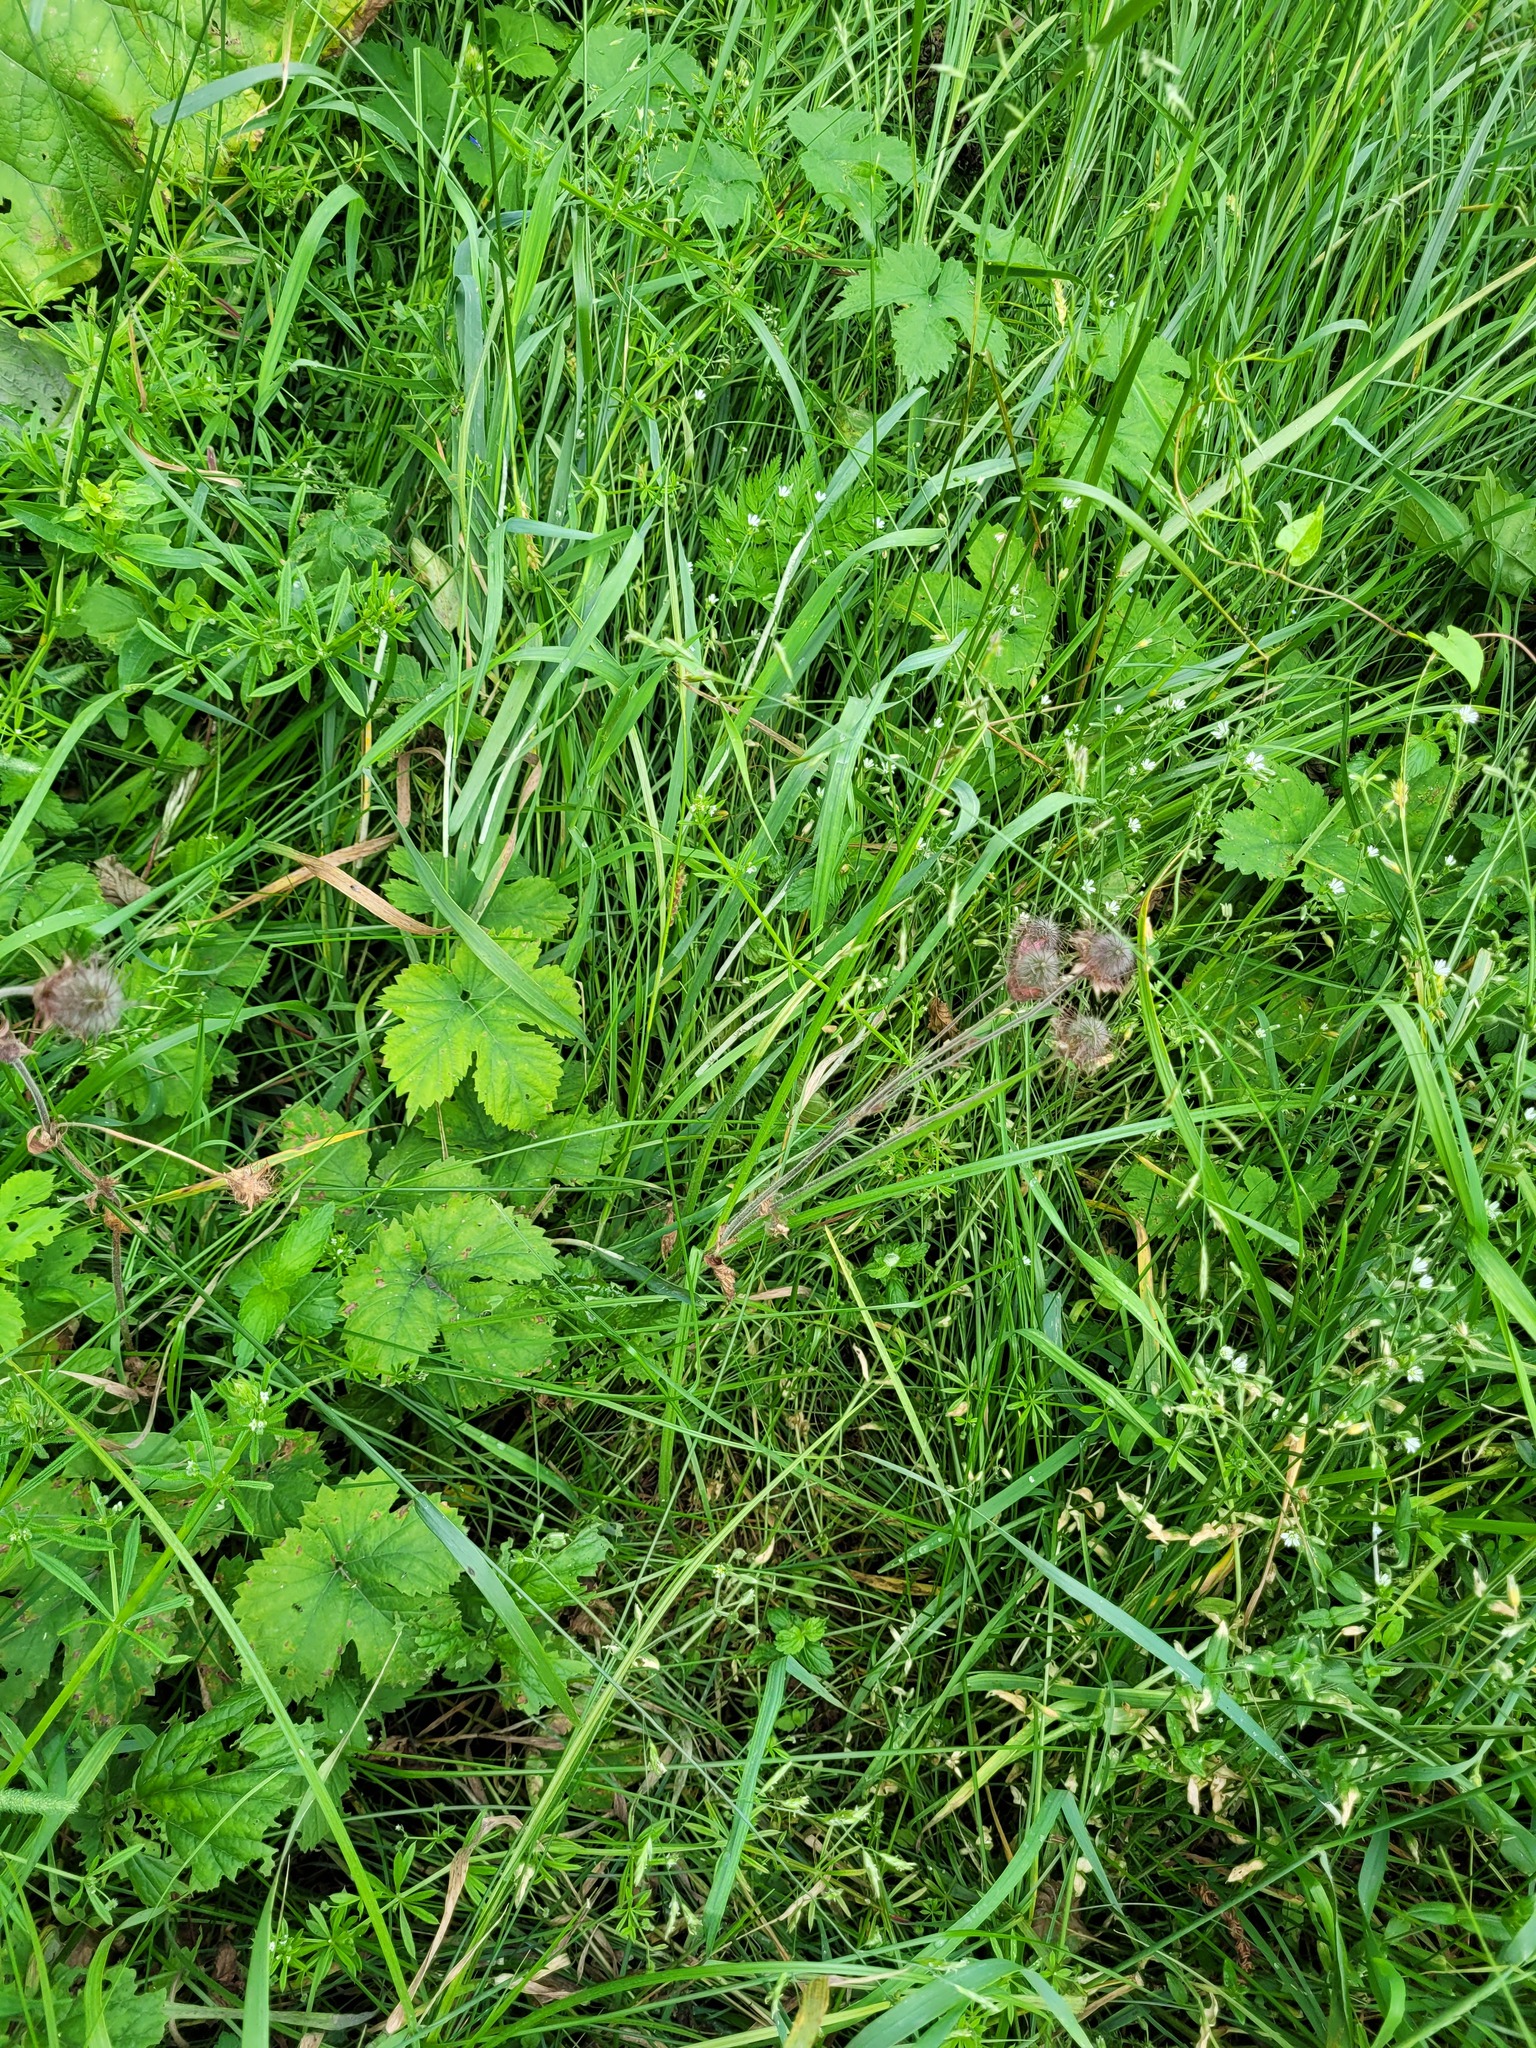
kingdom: Plantae
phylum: Tracheophyta
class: Magnoliopsida
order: Rosales
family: Rosaceae
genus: Geum
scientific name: Geum rivale
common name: Water avens
